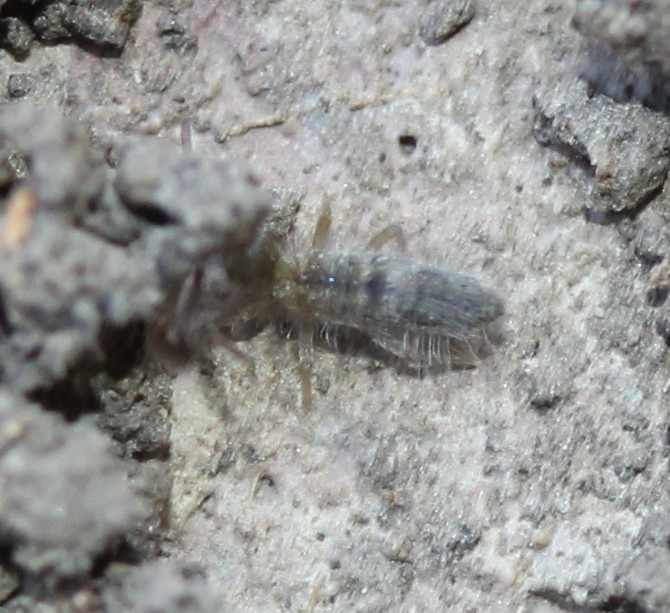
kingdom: Animalia
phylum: Arthropoda
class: Collembola
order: Entomobryomorpha
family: Entomobryidae
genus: Entomobrya
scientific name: Entomobrya unostrigata
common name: Springtail
